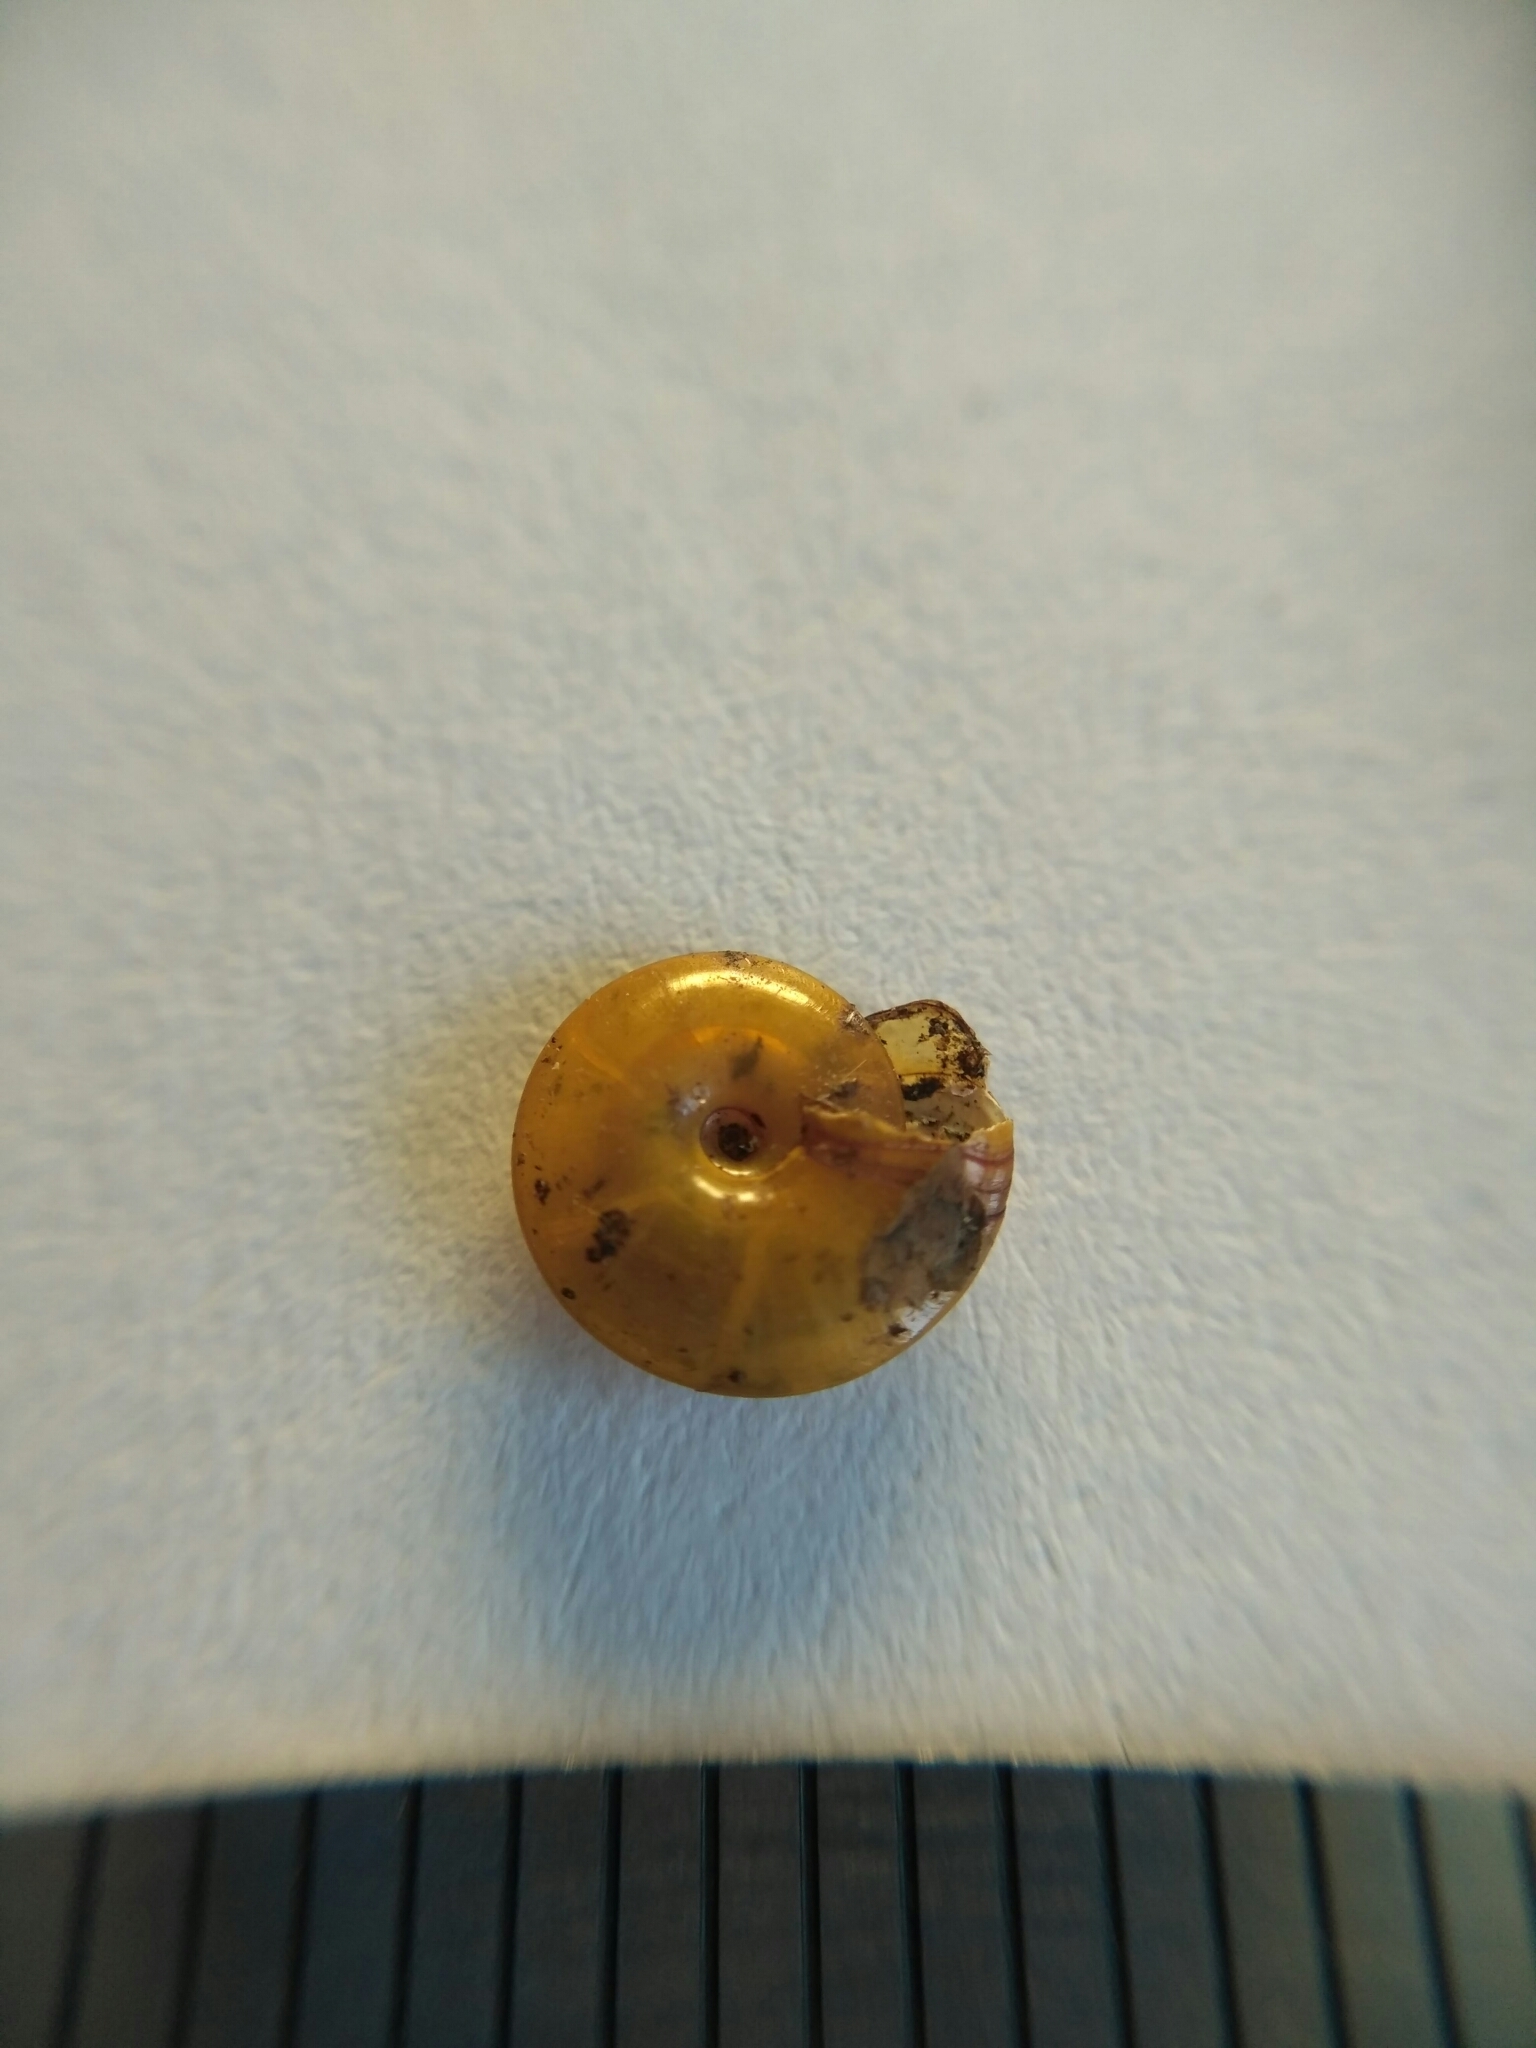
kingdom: Animalia
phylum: Mollusca
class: Gastropoda
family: Planorbidae
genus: Segmentina
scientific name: Segmentina nitida
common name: The shining ram's-horn
